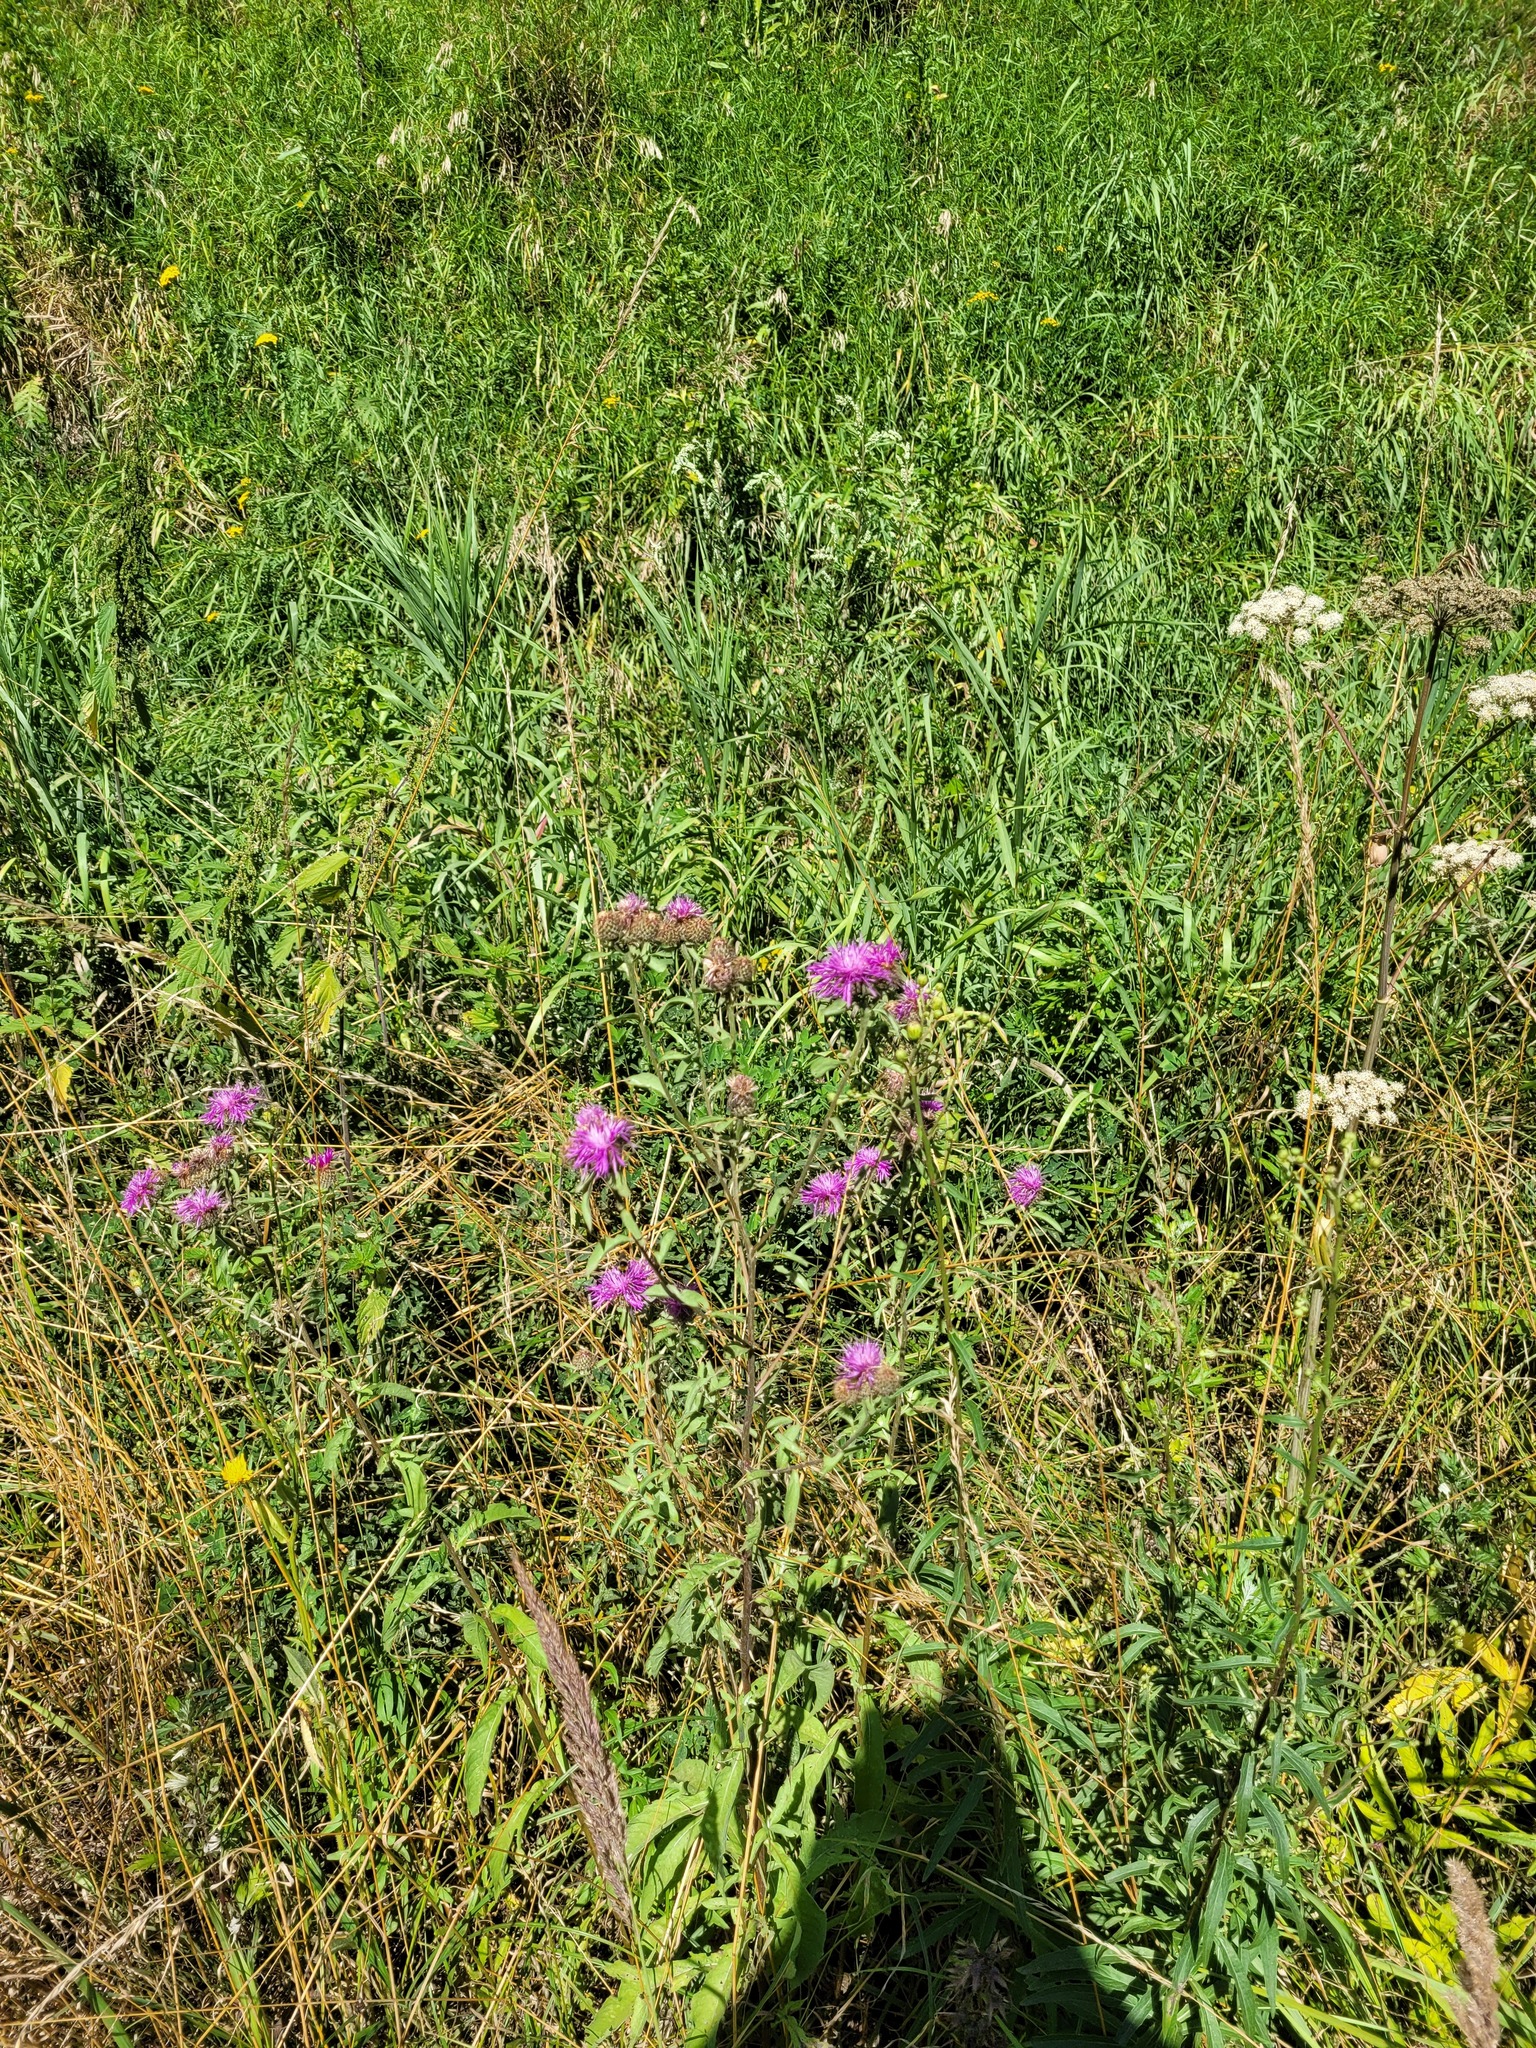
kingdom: Plantae
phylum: Tracheophyta
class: Magnoliopsida
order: Asterales
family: Asteraceae
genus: Centaurea
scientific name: Centaurea pseudophrygia
